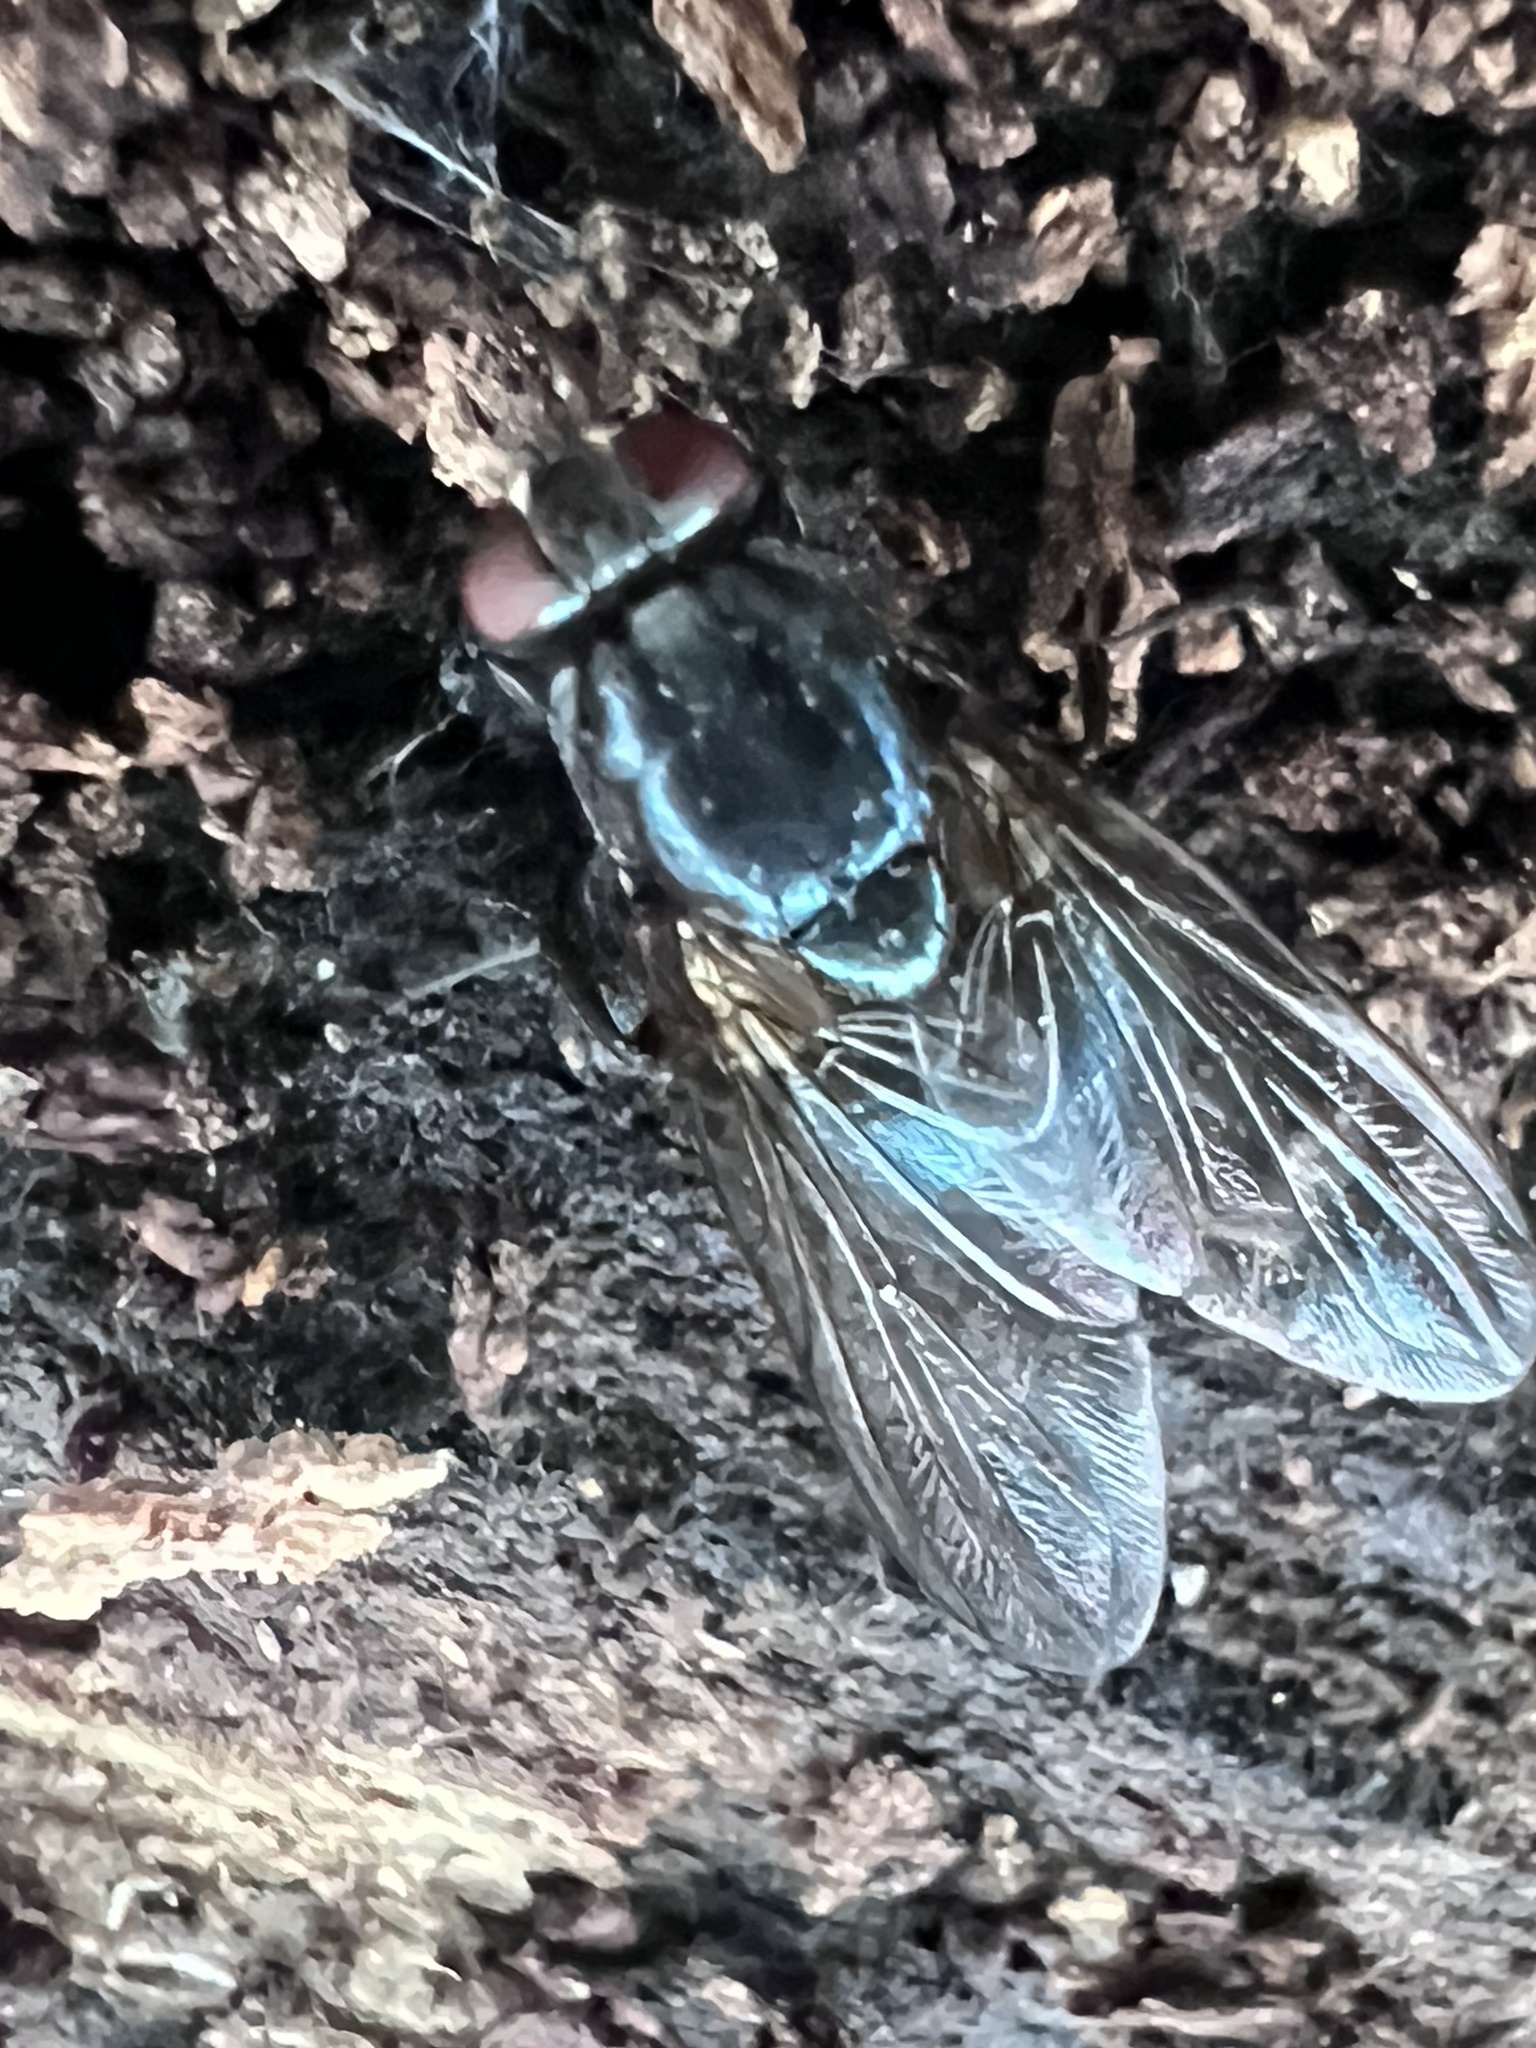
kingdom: Animalia
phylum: Arthropoda
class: Insecta
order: Diptera
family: Muscidae
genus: Eudasyphora
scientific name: Eudasyphora cyanicolor
